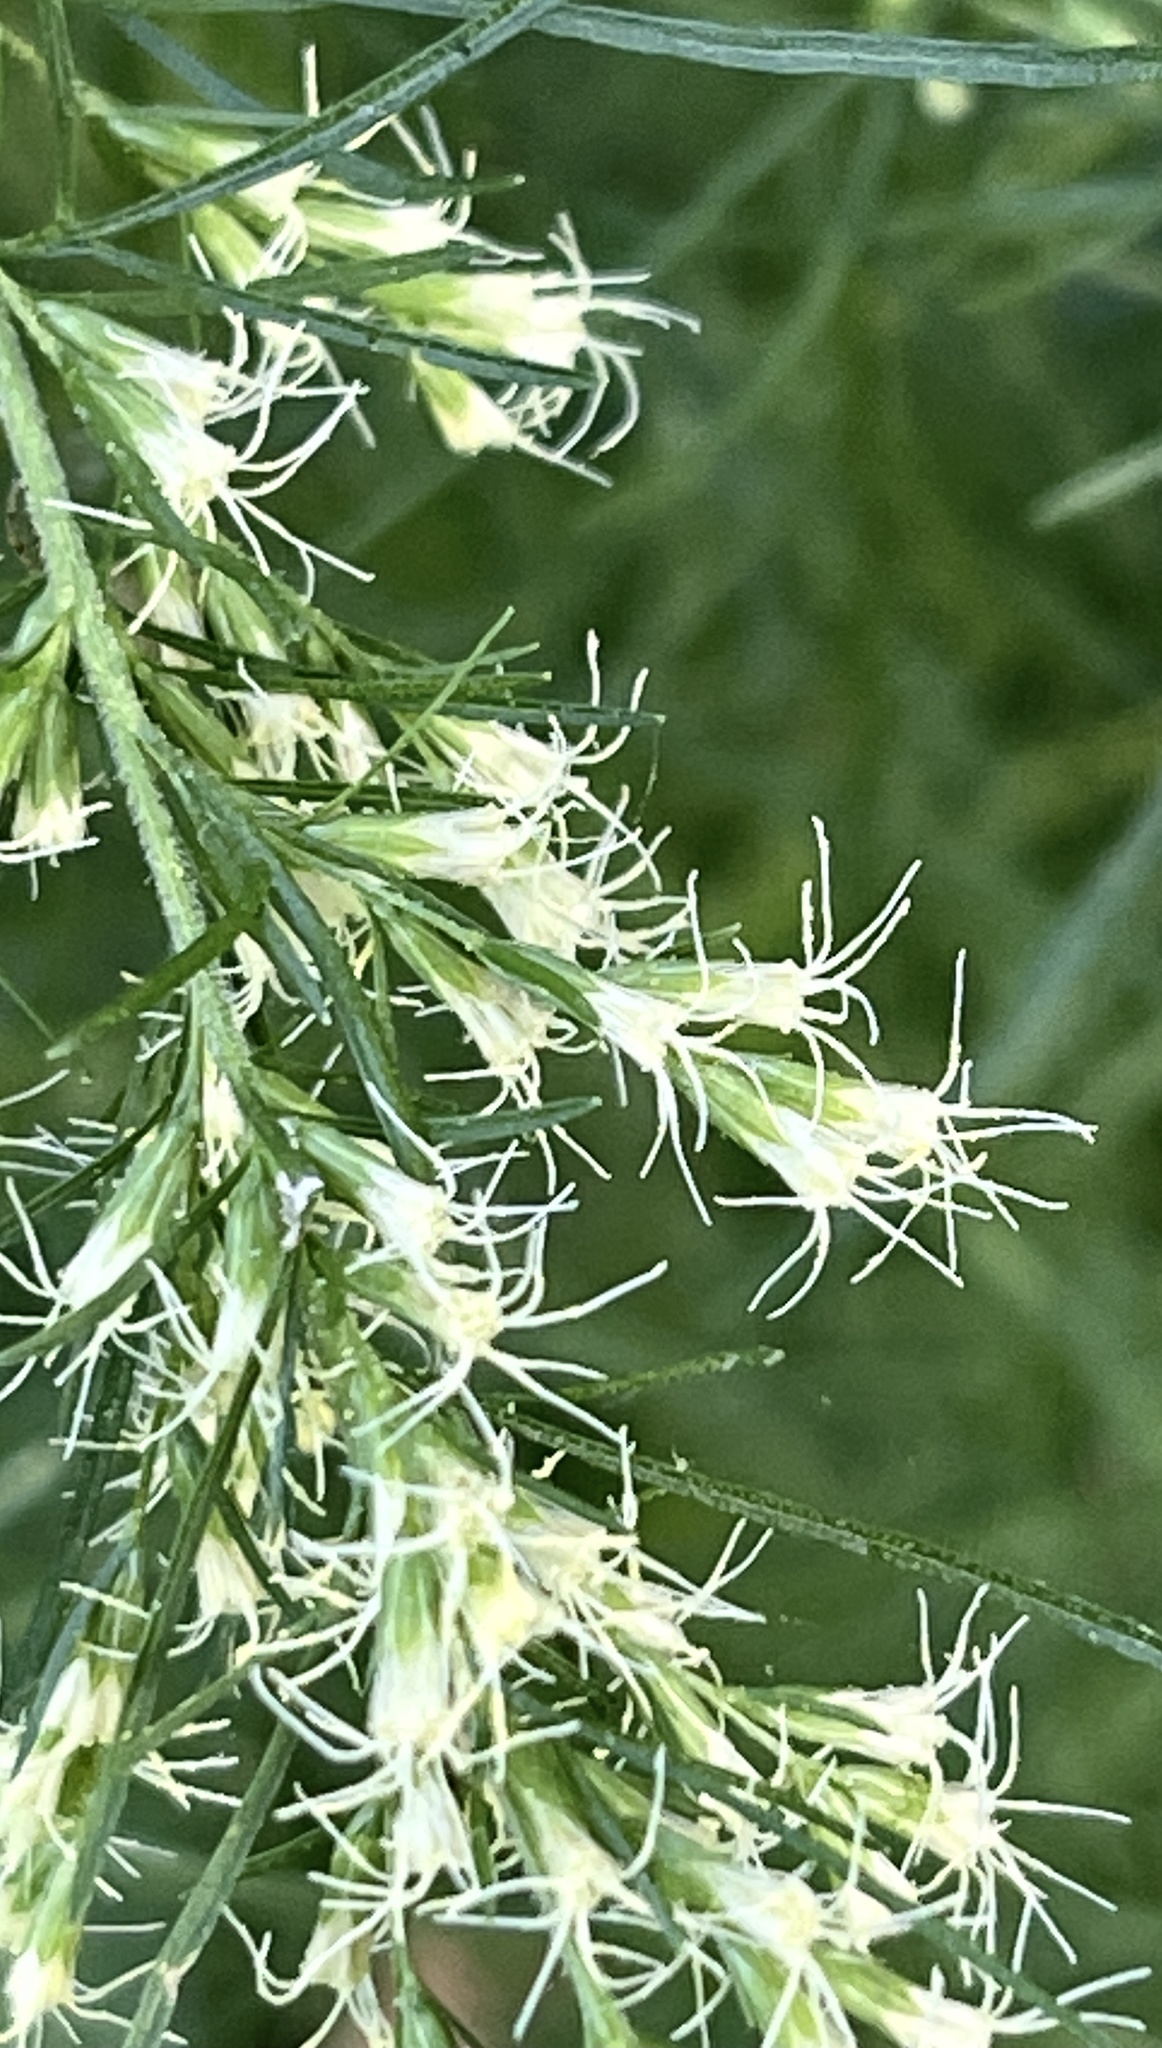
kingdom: Plantae
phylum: Tracheophyta
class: Magnoliopsida
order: Asterales
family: Asteraceae
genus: Eupatorium
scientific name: Eupatorium capillifolium
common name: Dog-fennel
